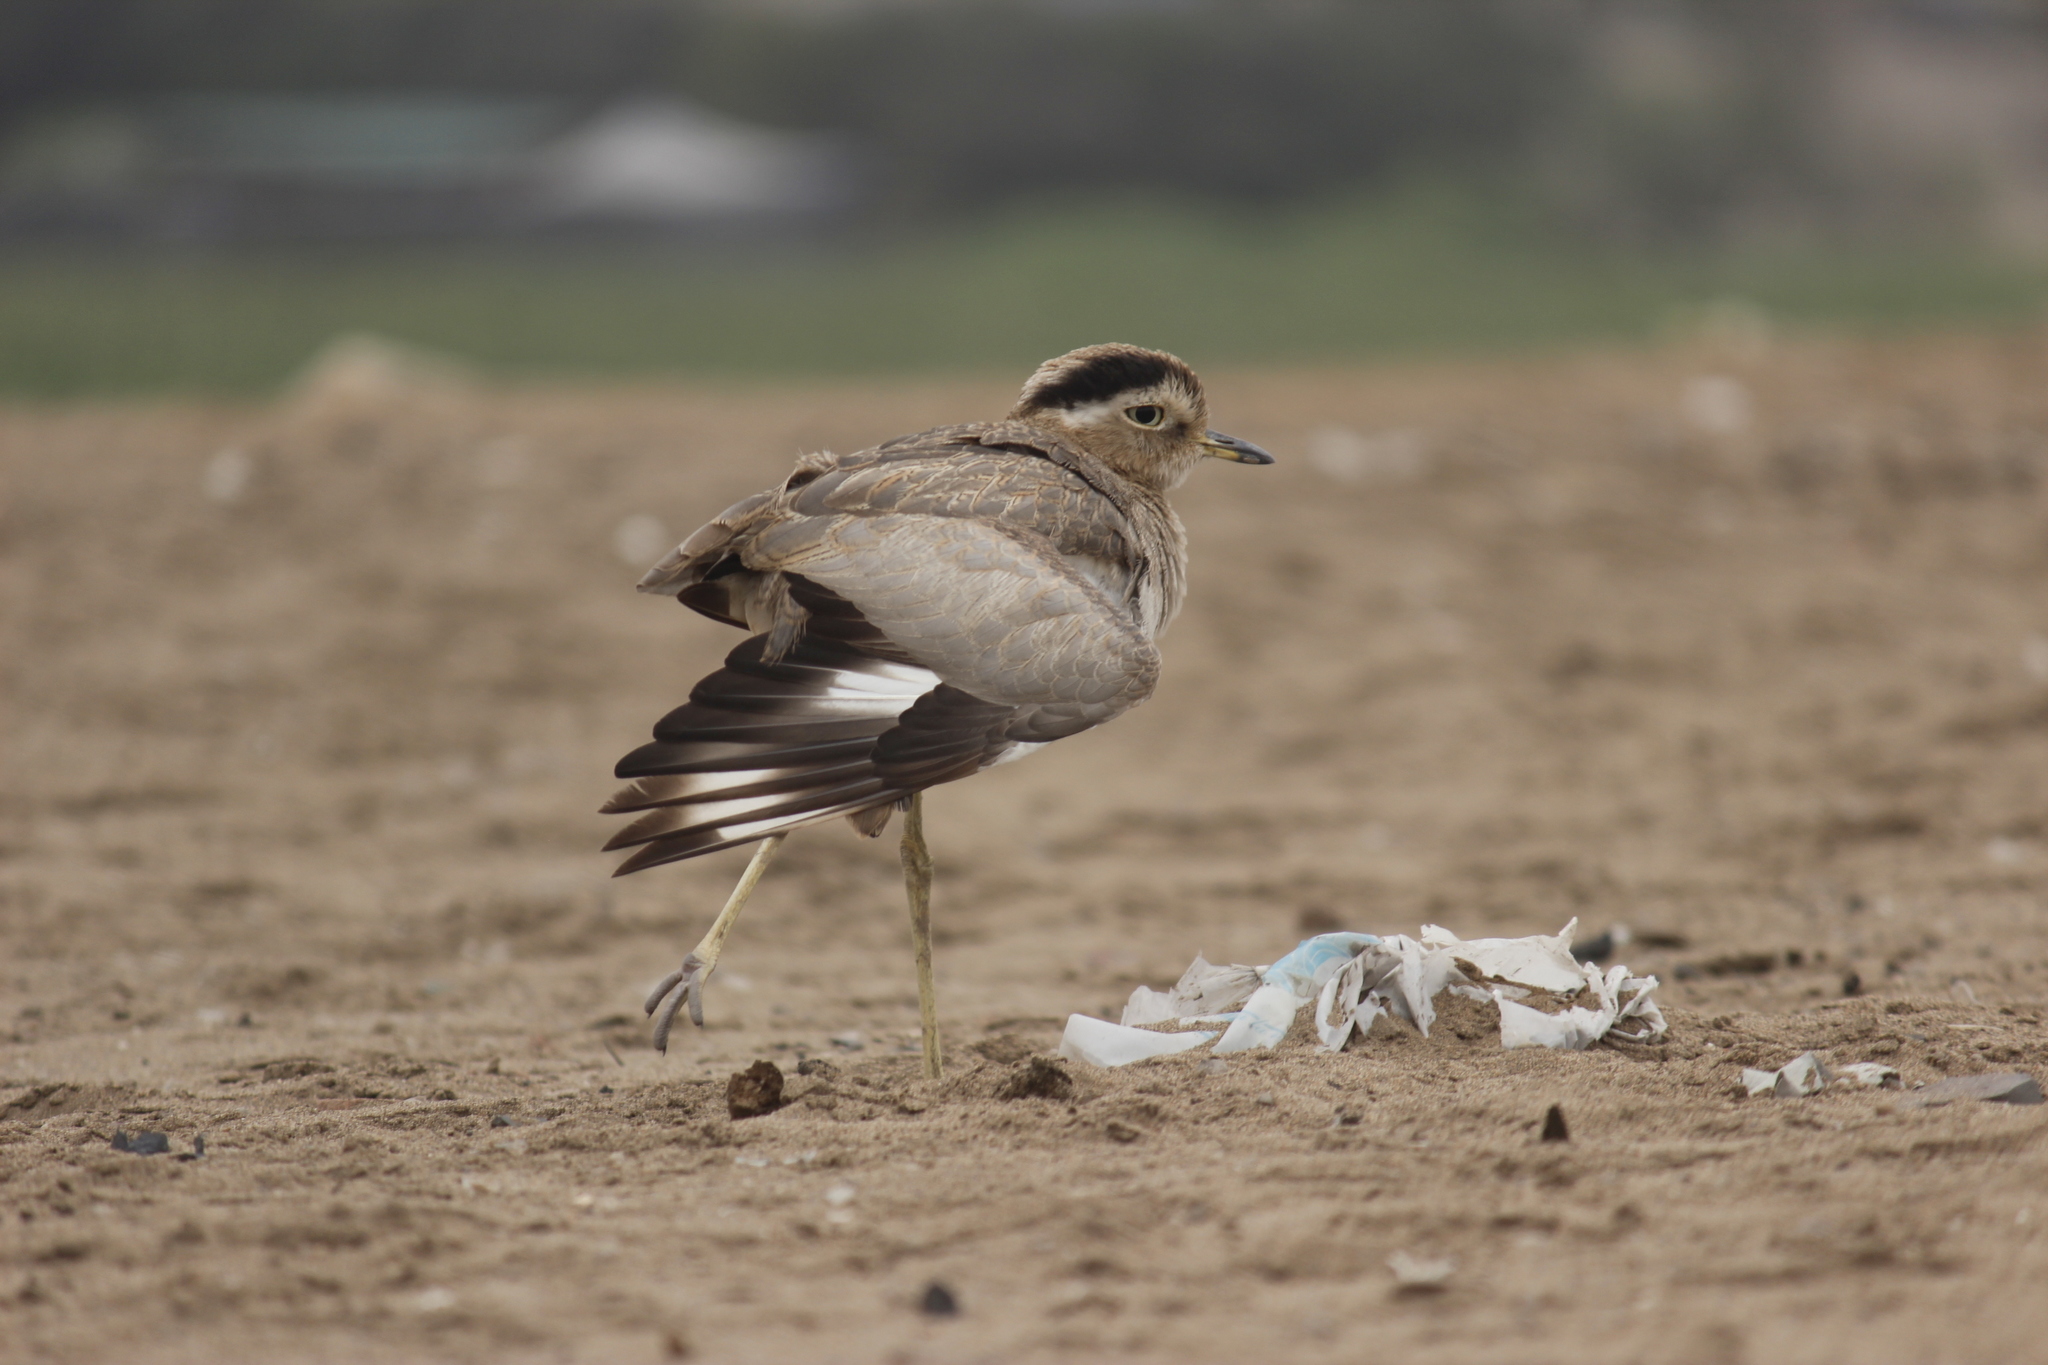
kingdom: Animalia
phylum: Chordata
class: Aves
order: Charadriiformes
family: Burhinidae
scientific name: Burhinidae
